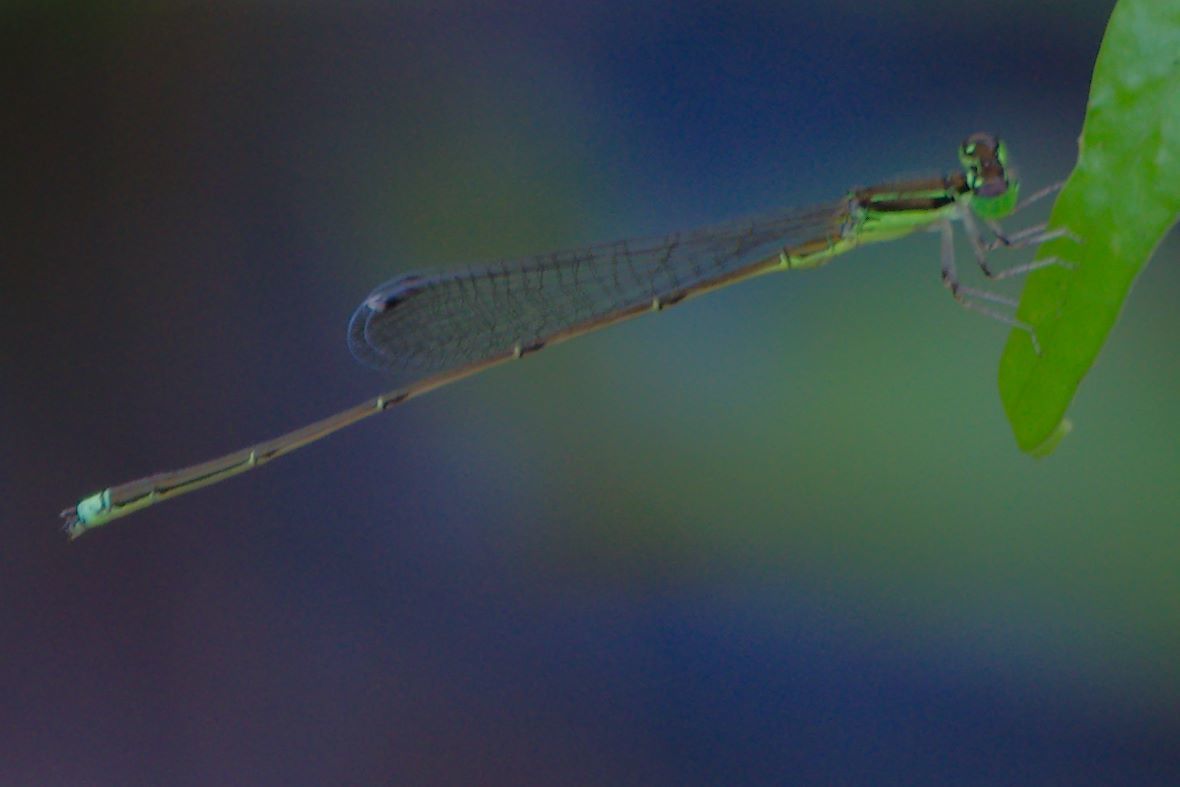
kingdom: Animalia
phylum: Arthropoda
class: Insecta
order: Odonata
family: Coenagrionidae
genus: Ischnura
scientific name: Ischnura prognata
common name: Furtive forktail
